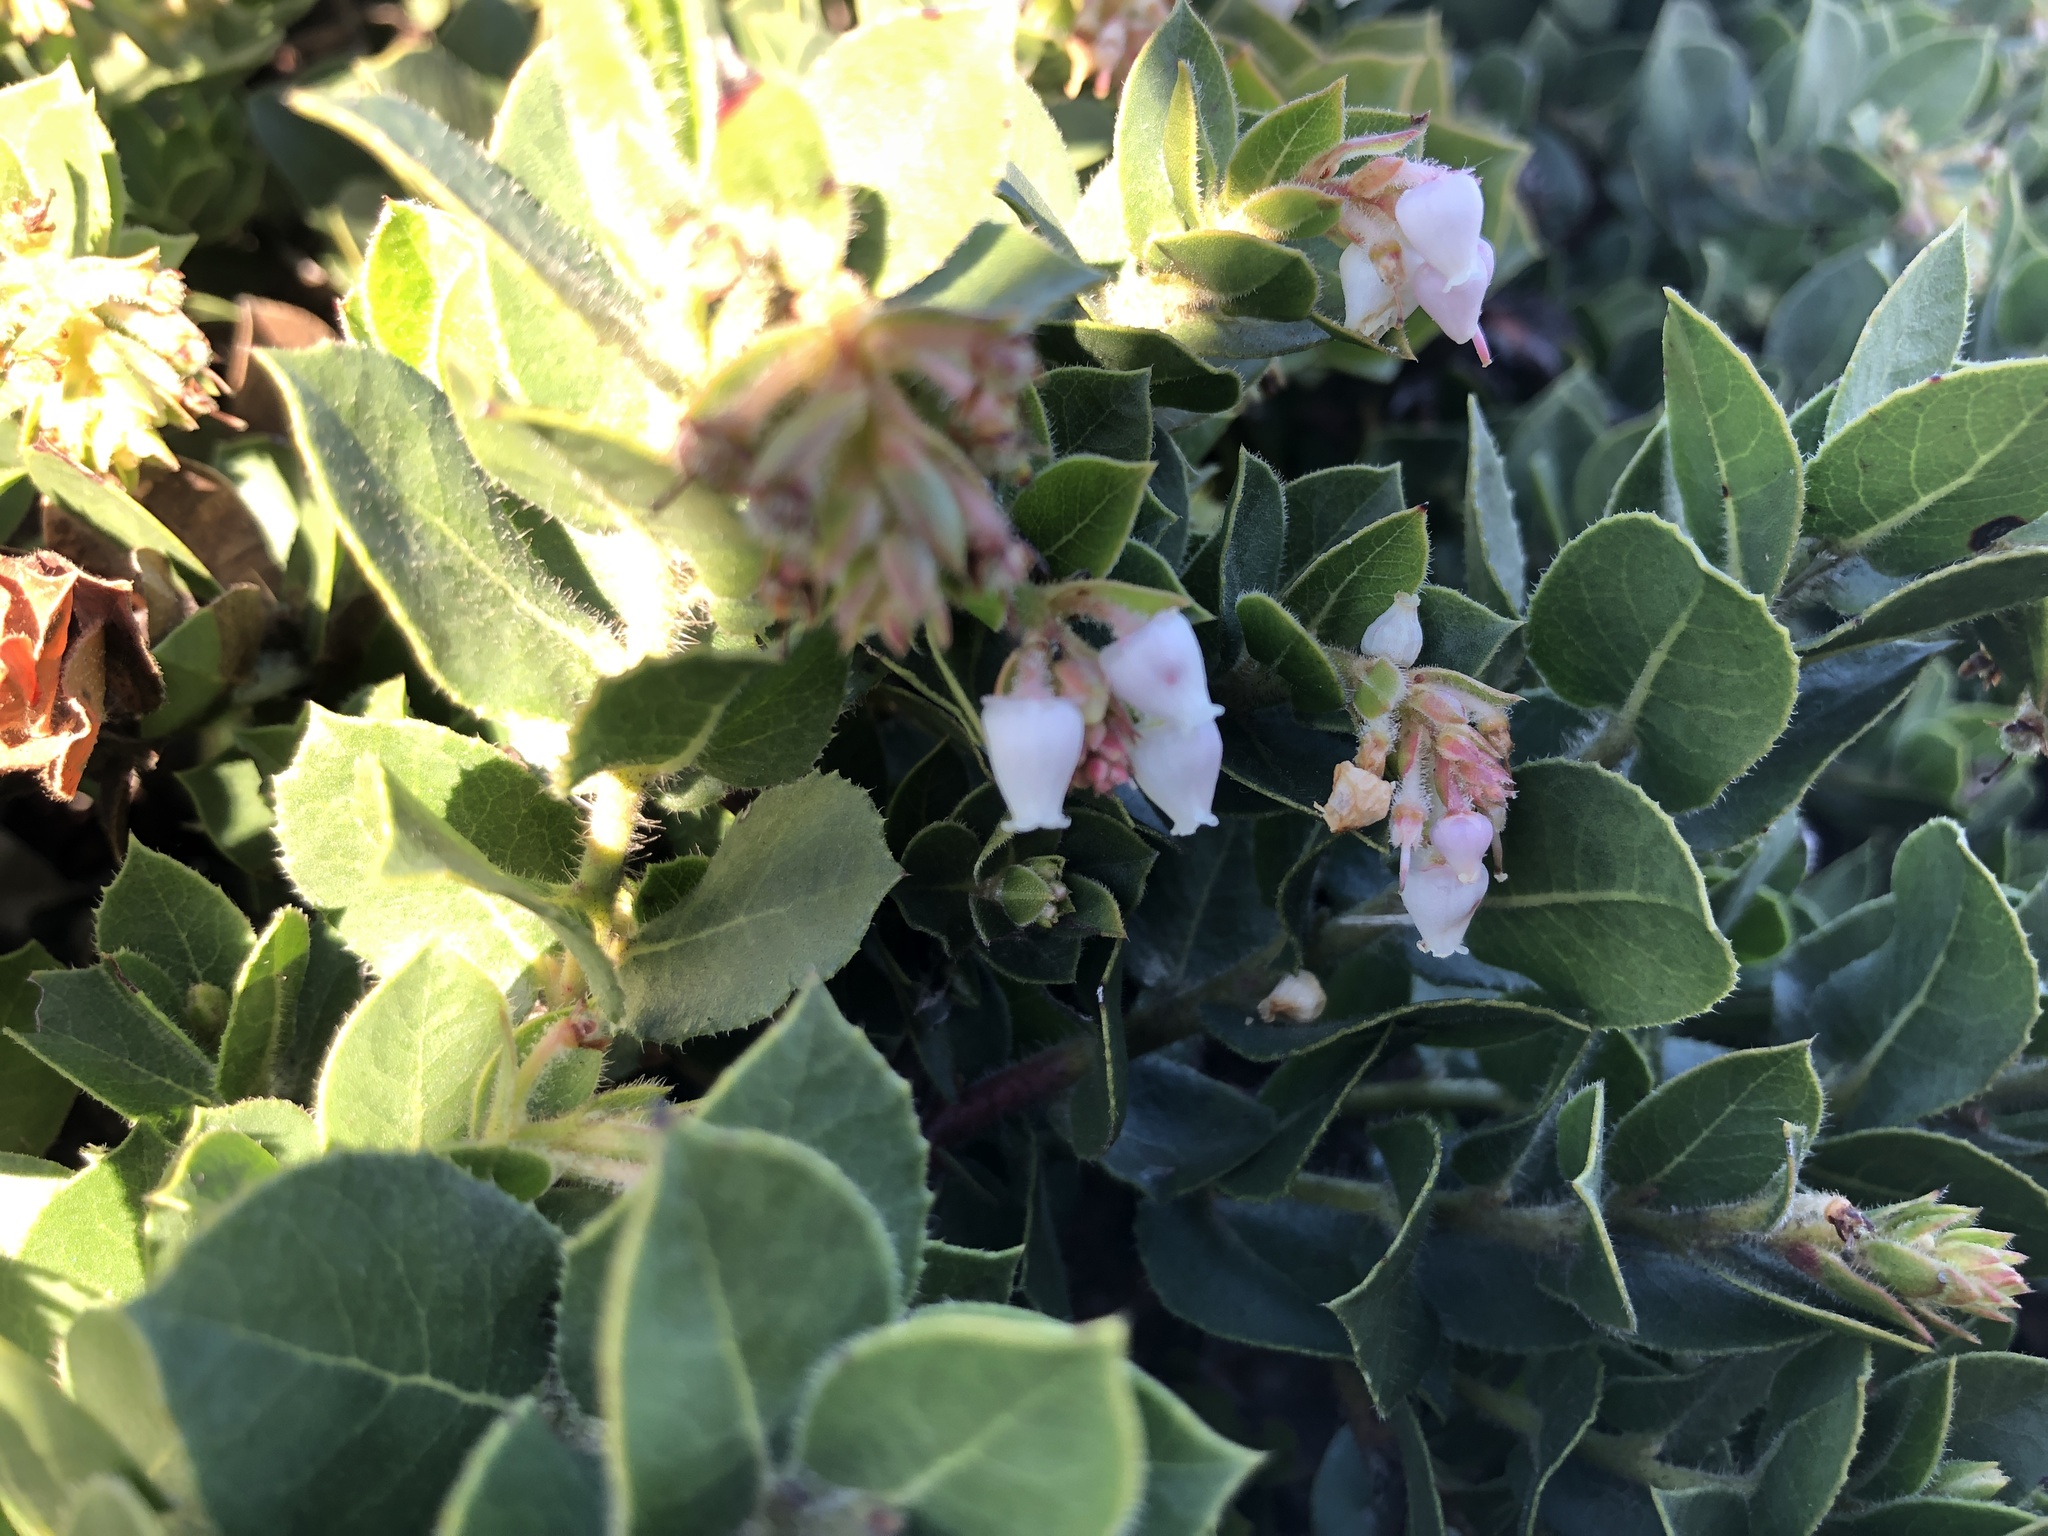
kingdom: Plantae
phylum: Tracheophyta
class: Magnoliopsida
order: Ericales
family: Ericaceae
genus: Arctostaphylos
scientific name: Arctostaphylos imbricata
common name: San bruno mountain manzanita
